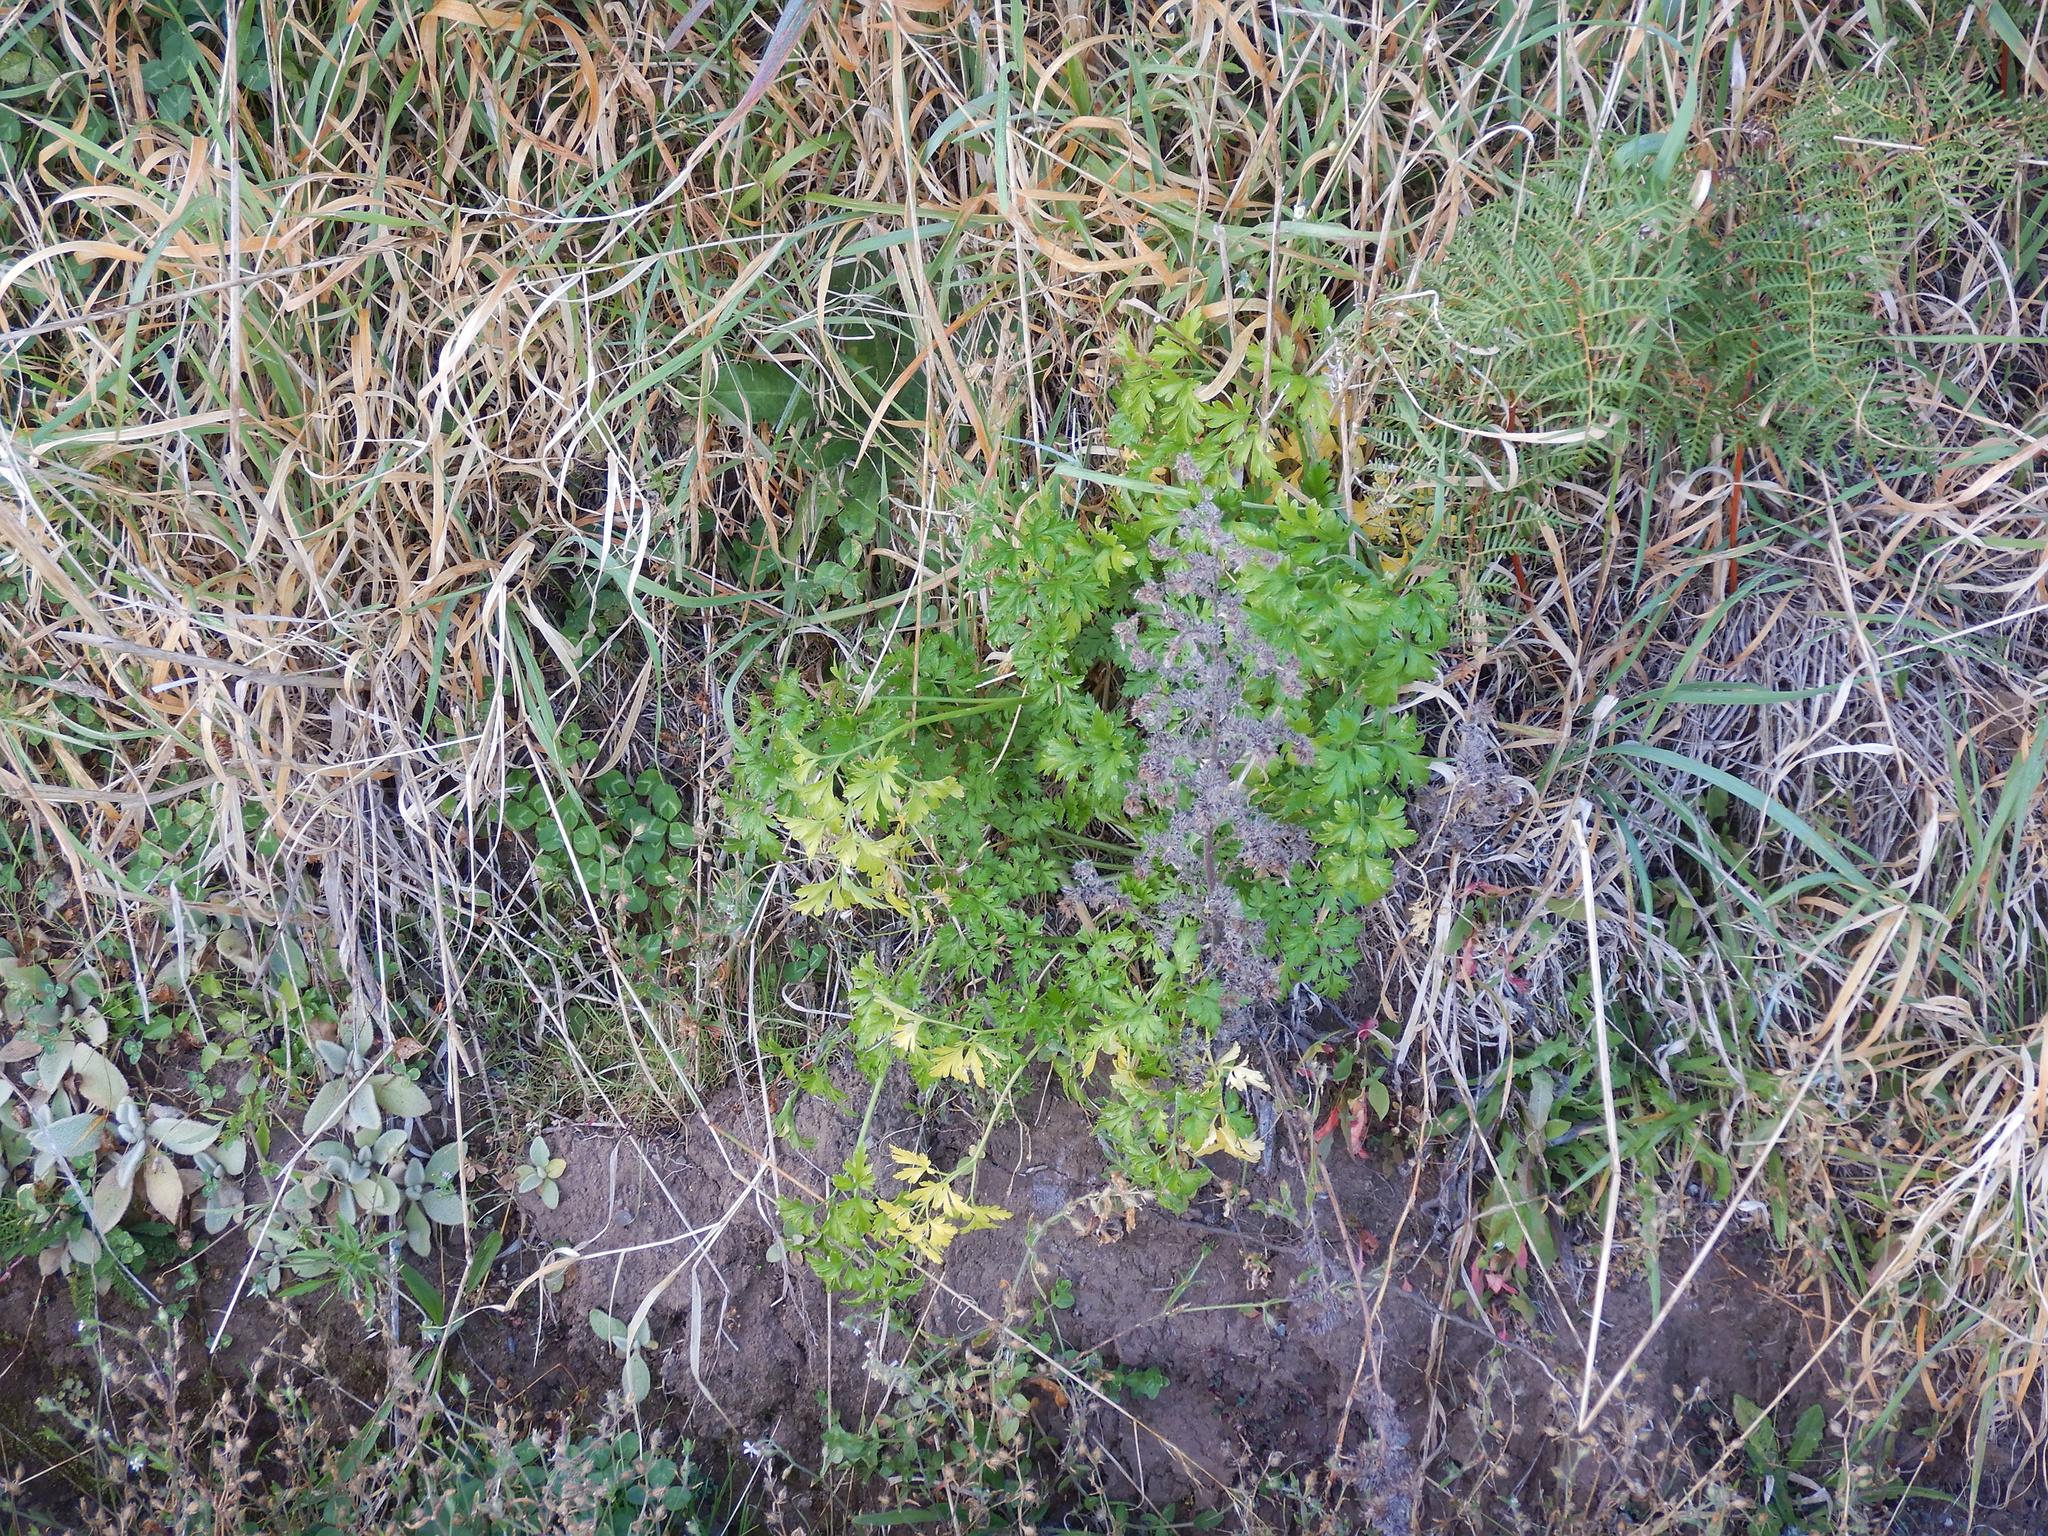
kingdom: Plantae
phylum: Tracheophyta
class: Magnoliopsida
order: Apiales
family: Apiaceae
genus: Petroselinum
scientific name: Petroselinum crispum
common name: Parsley
